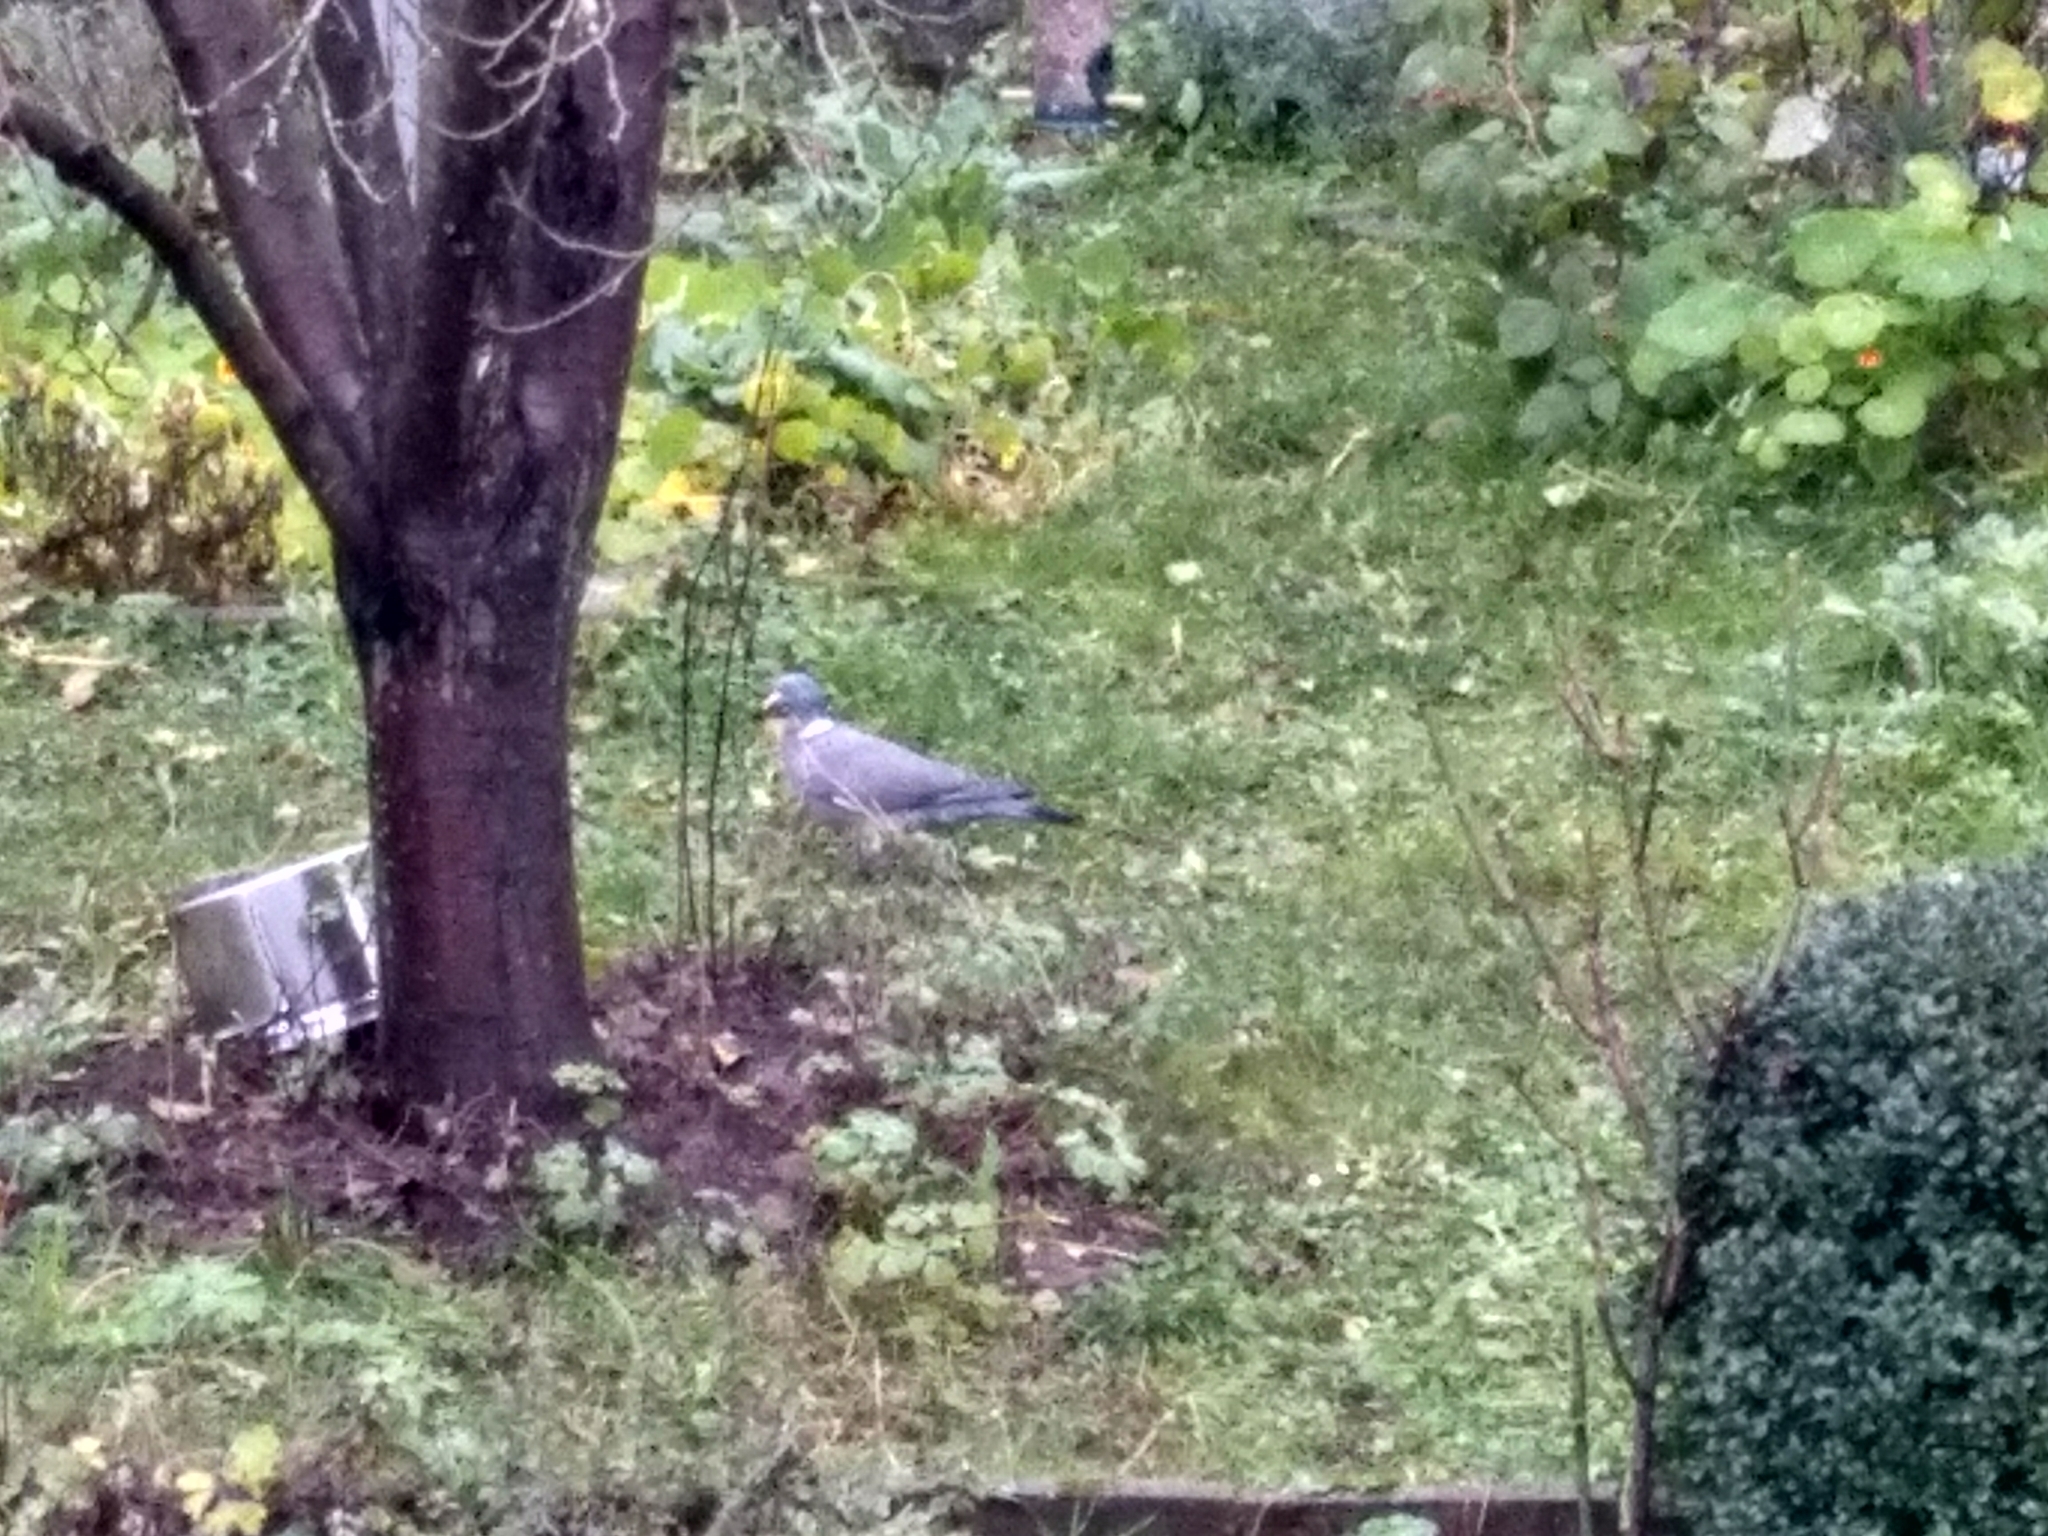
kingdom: Animalia
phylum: Chordata
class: Aves
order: Columbiformes
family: Columbidae
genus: Columba
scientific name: Columba palumbus
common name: Common wood pigeon
